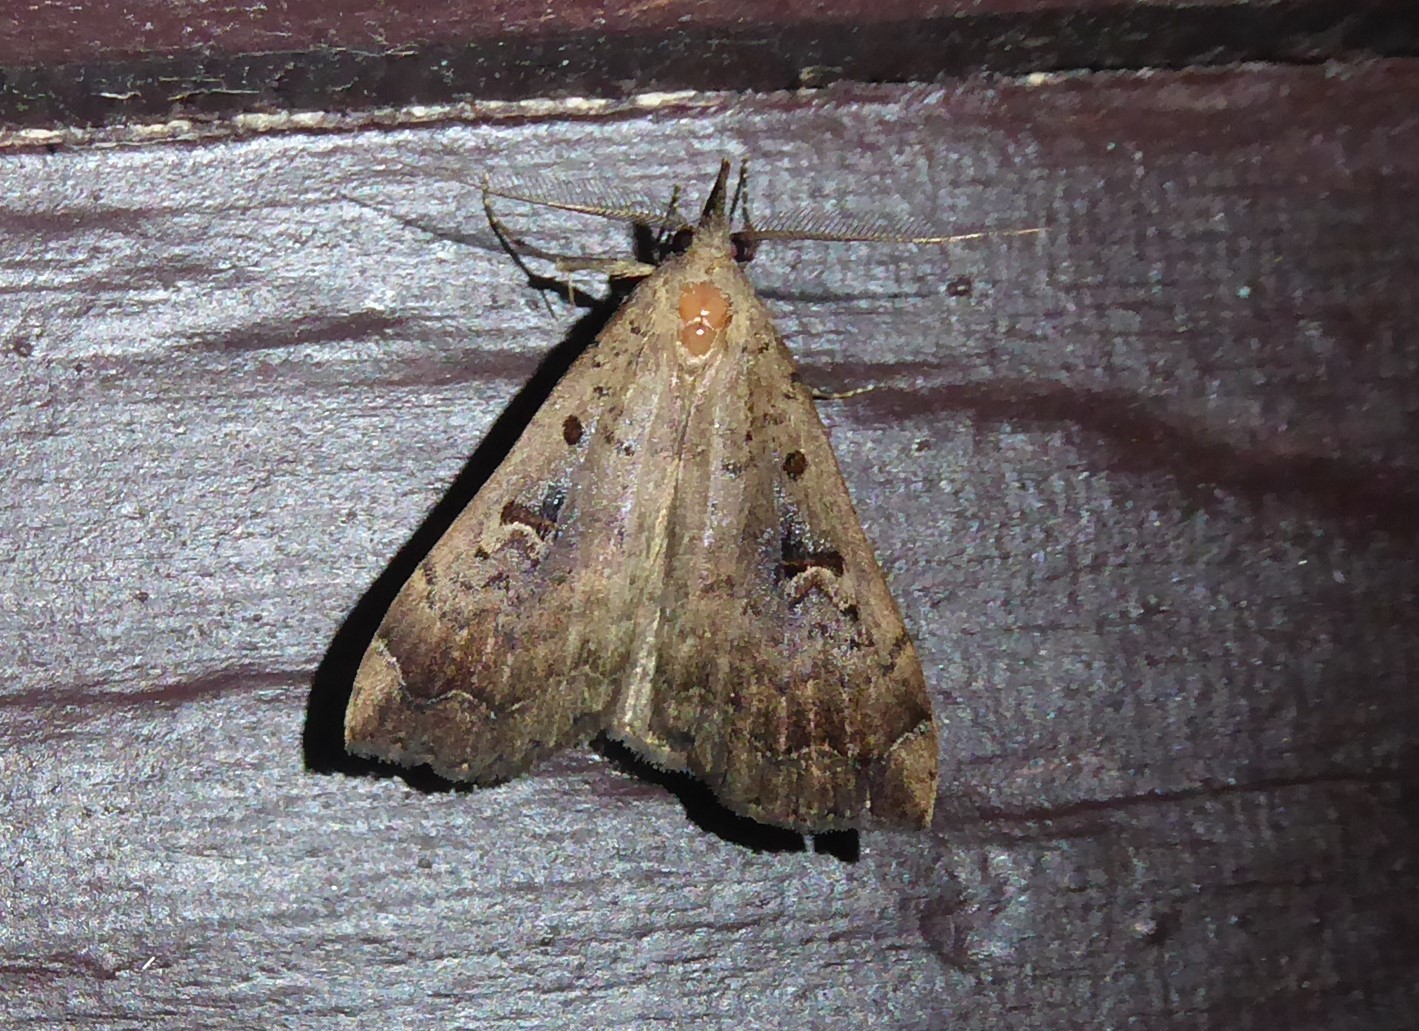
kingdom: Animalia
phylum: Arthropoda
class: Insecta
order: Lepidoptera
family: Erebidae
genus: Rhapsa
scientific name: Rhapsa scotosialis
